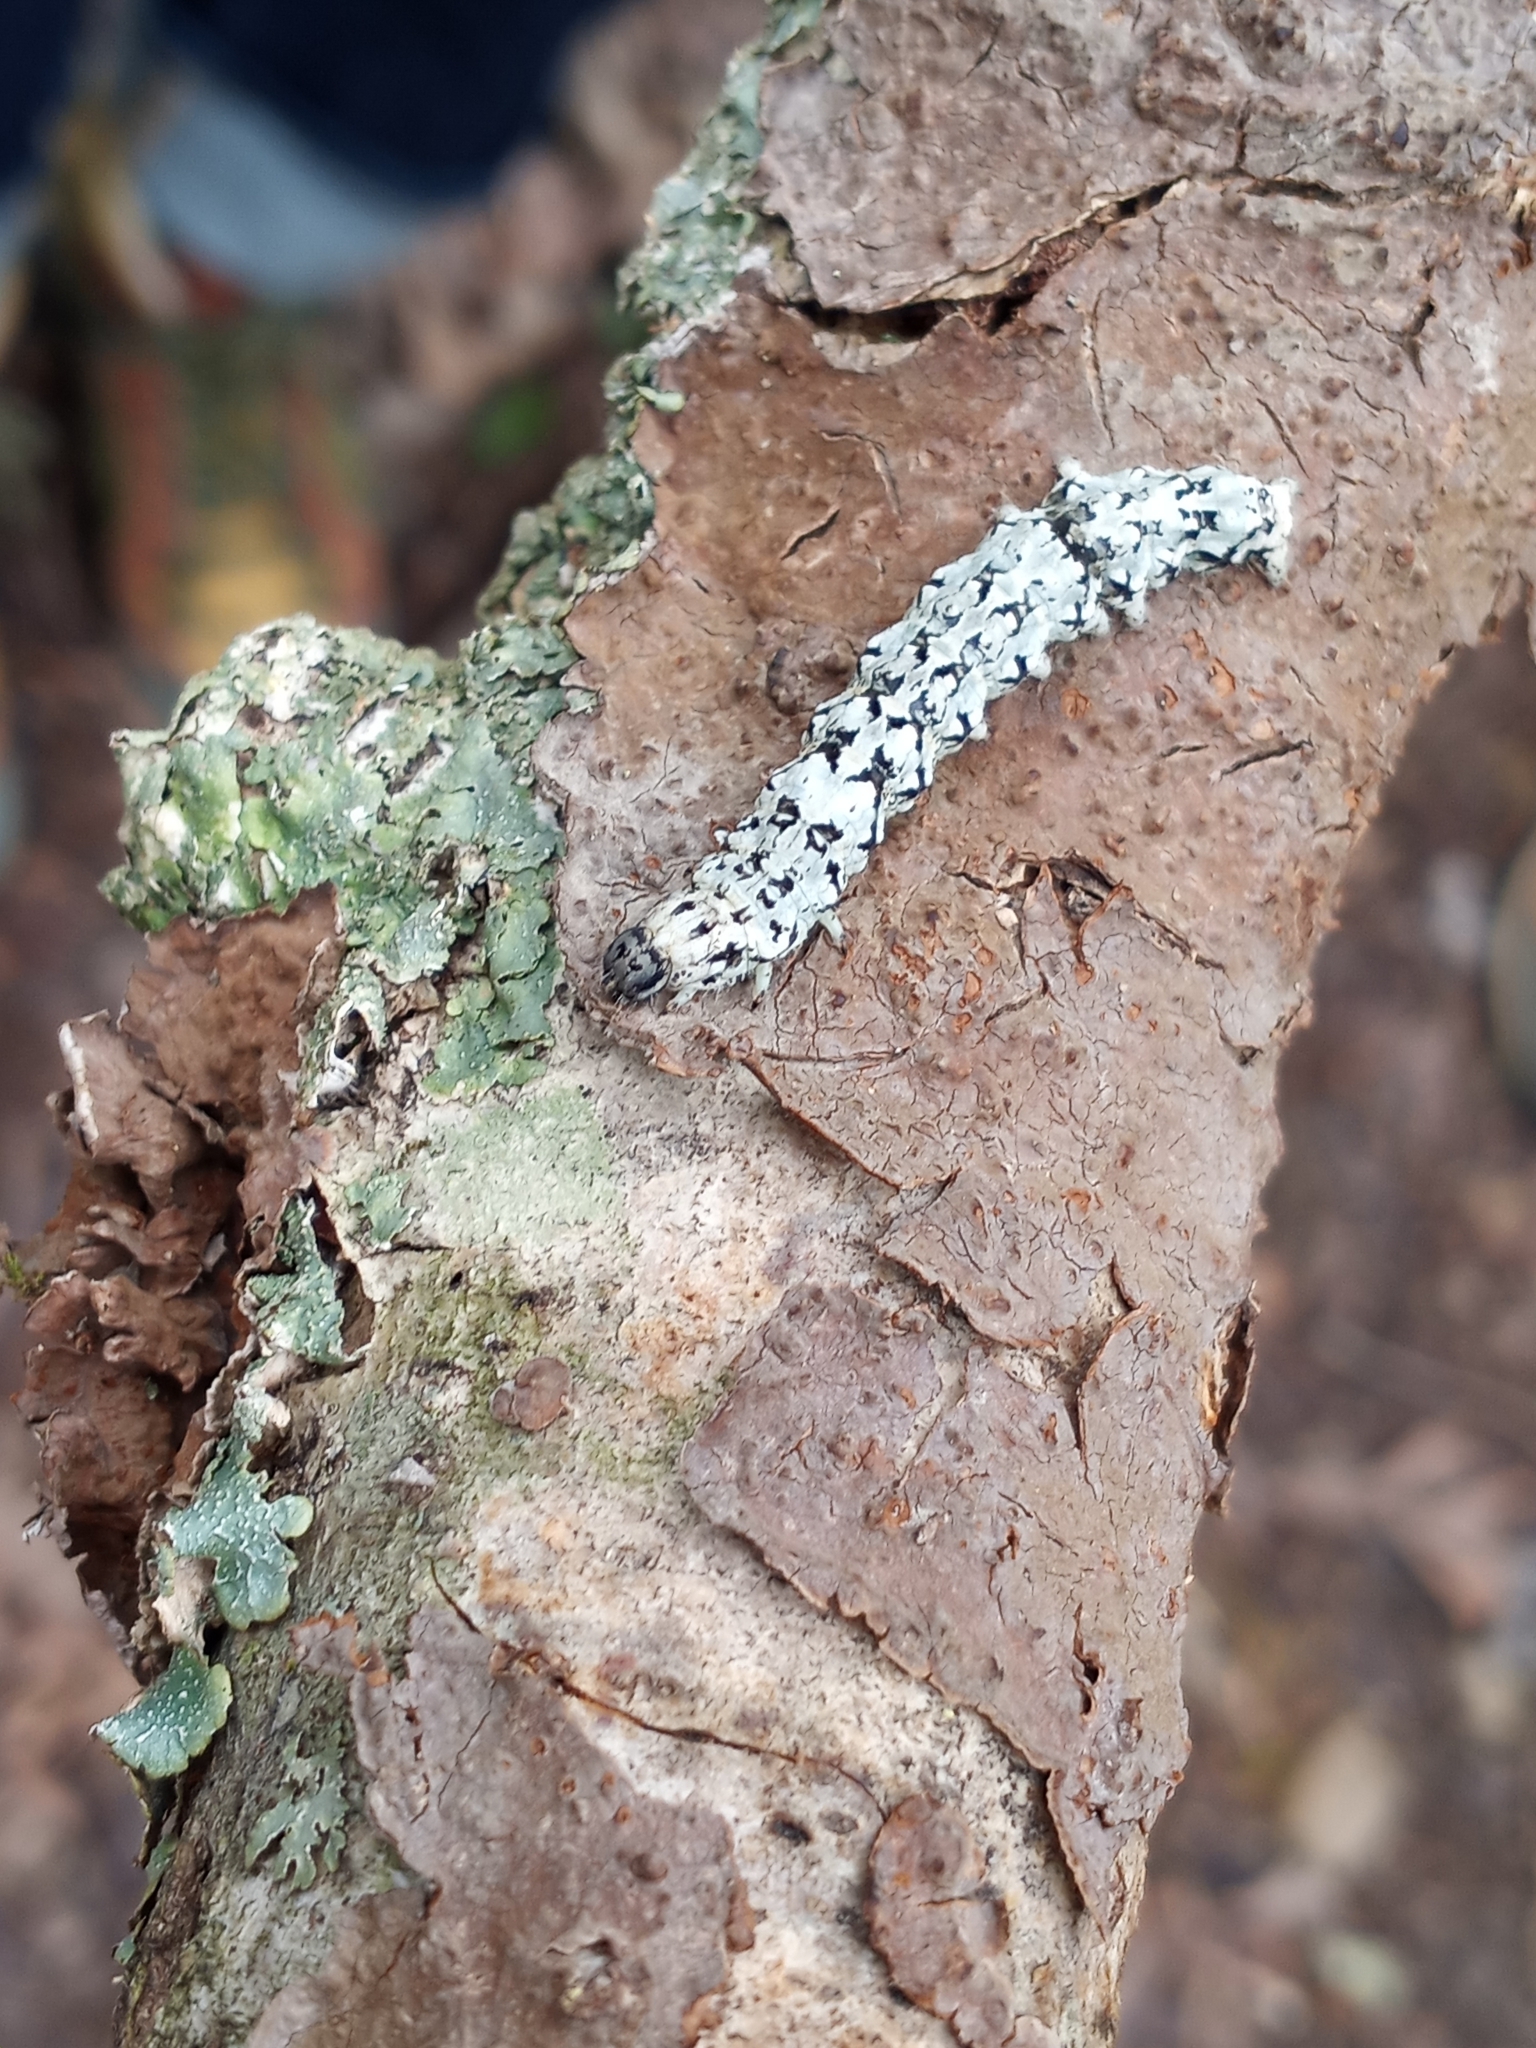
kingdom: Animalia
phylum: Arthropoda
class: Insecta
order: Lepidoptera
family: Erebidae
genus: Catocala
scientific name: Catocala ilia
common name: Ilia underwing
